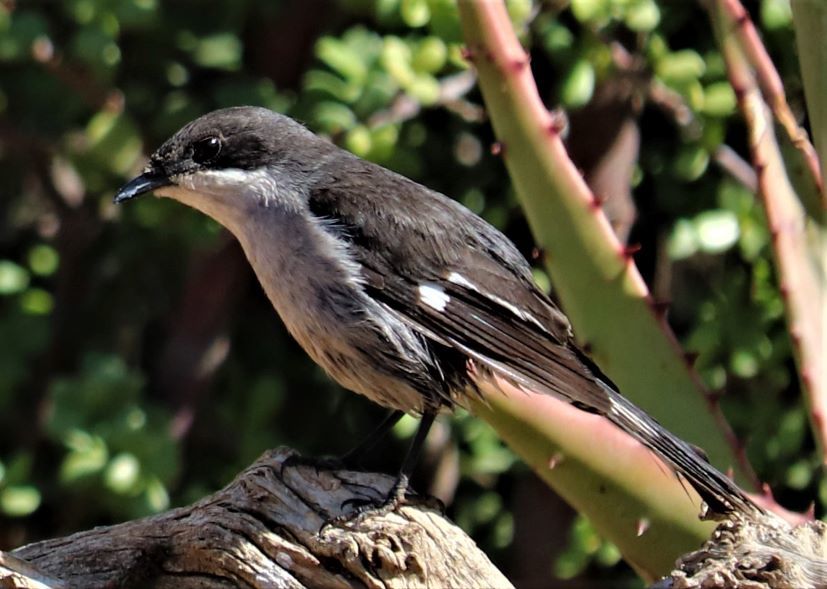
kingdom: Animalia
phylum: Chordata
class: Aves
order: Passeriformes
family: Muscicapidae
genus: Sigelus
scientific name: Sigelus silens
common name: Fiscal flycatcher
